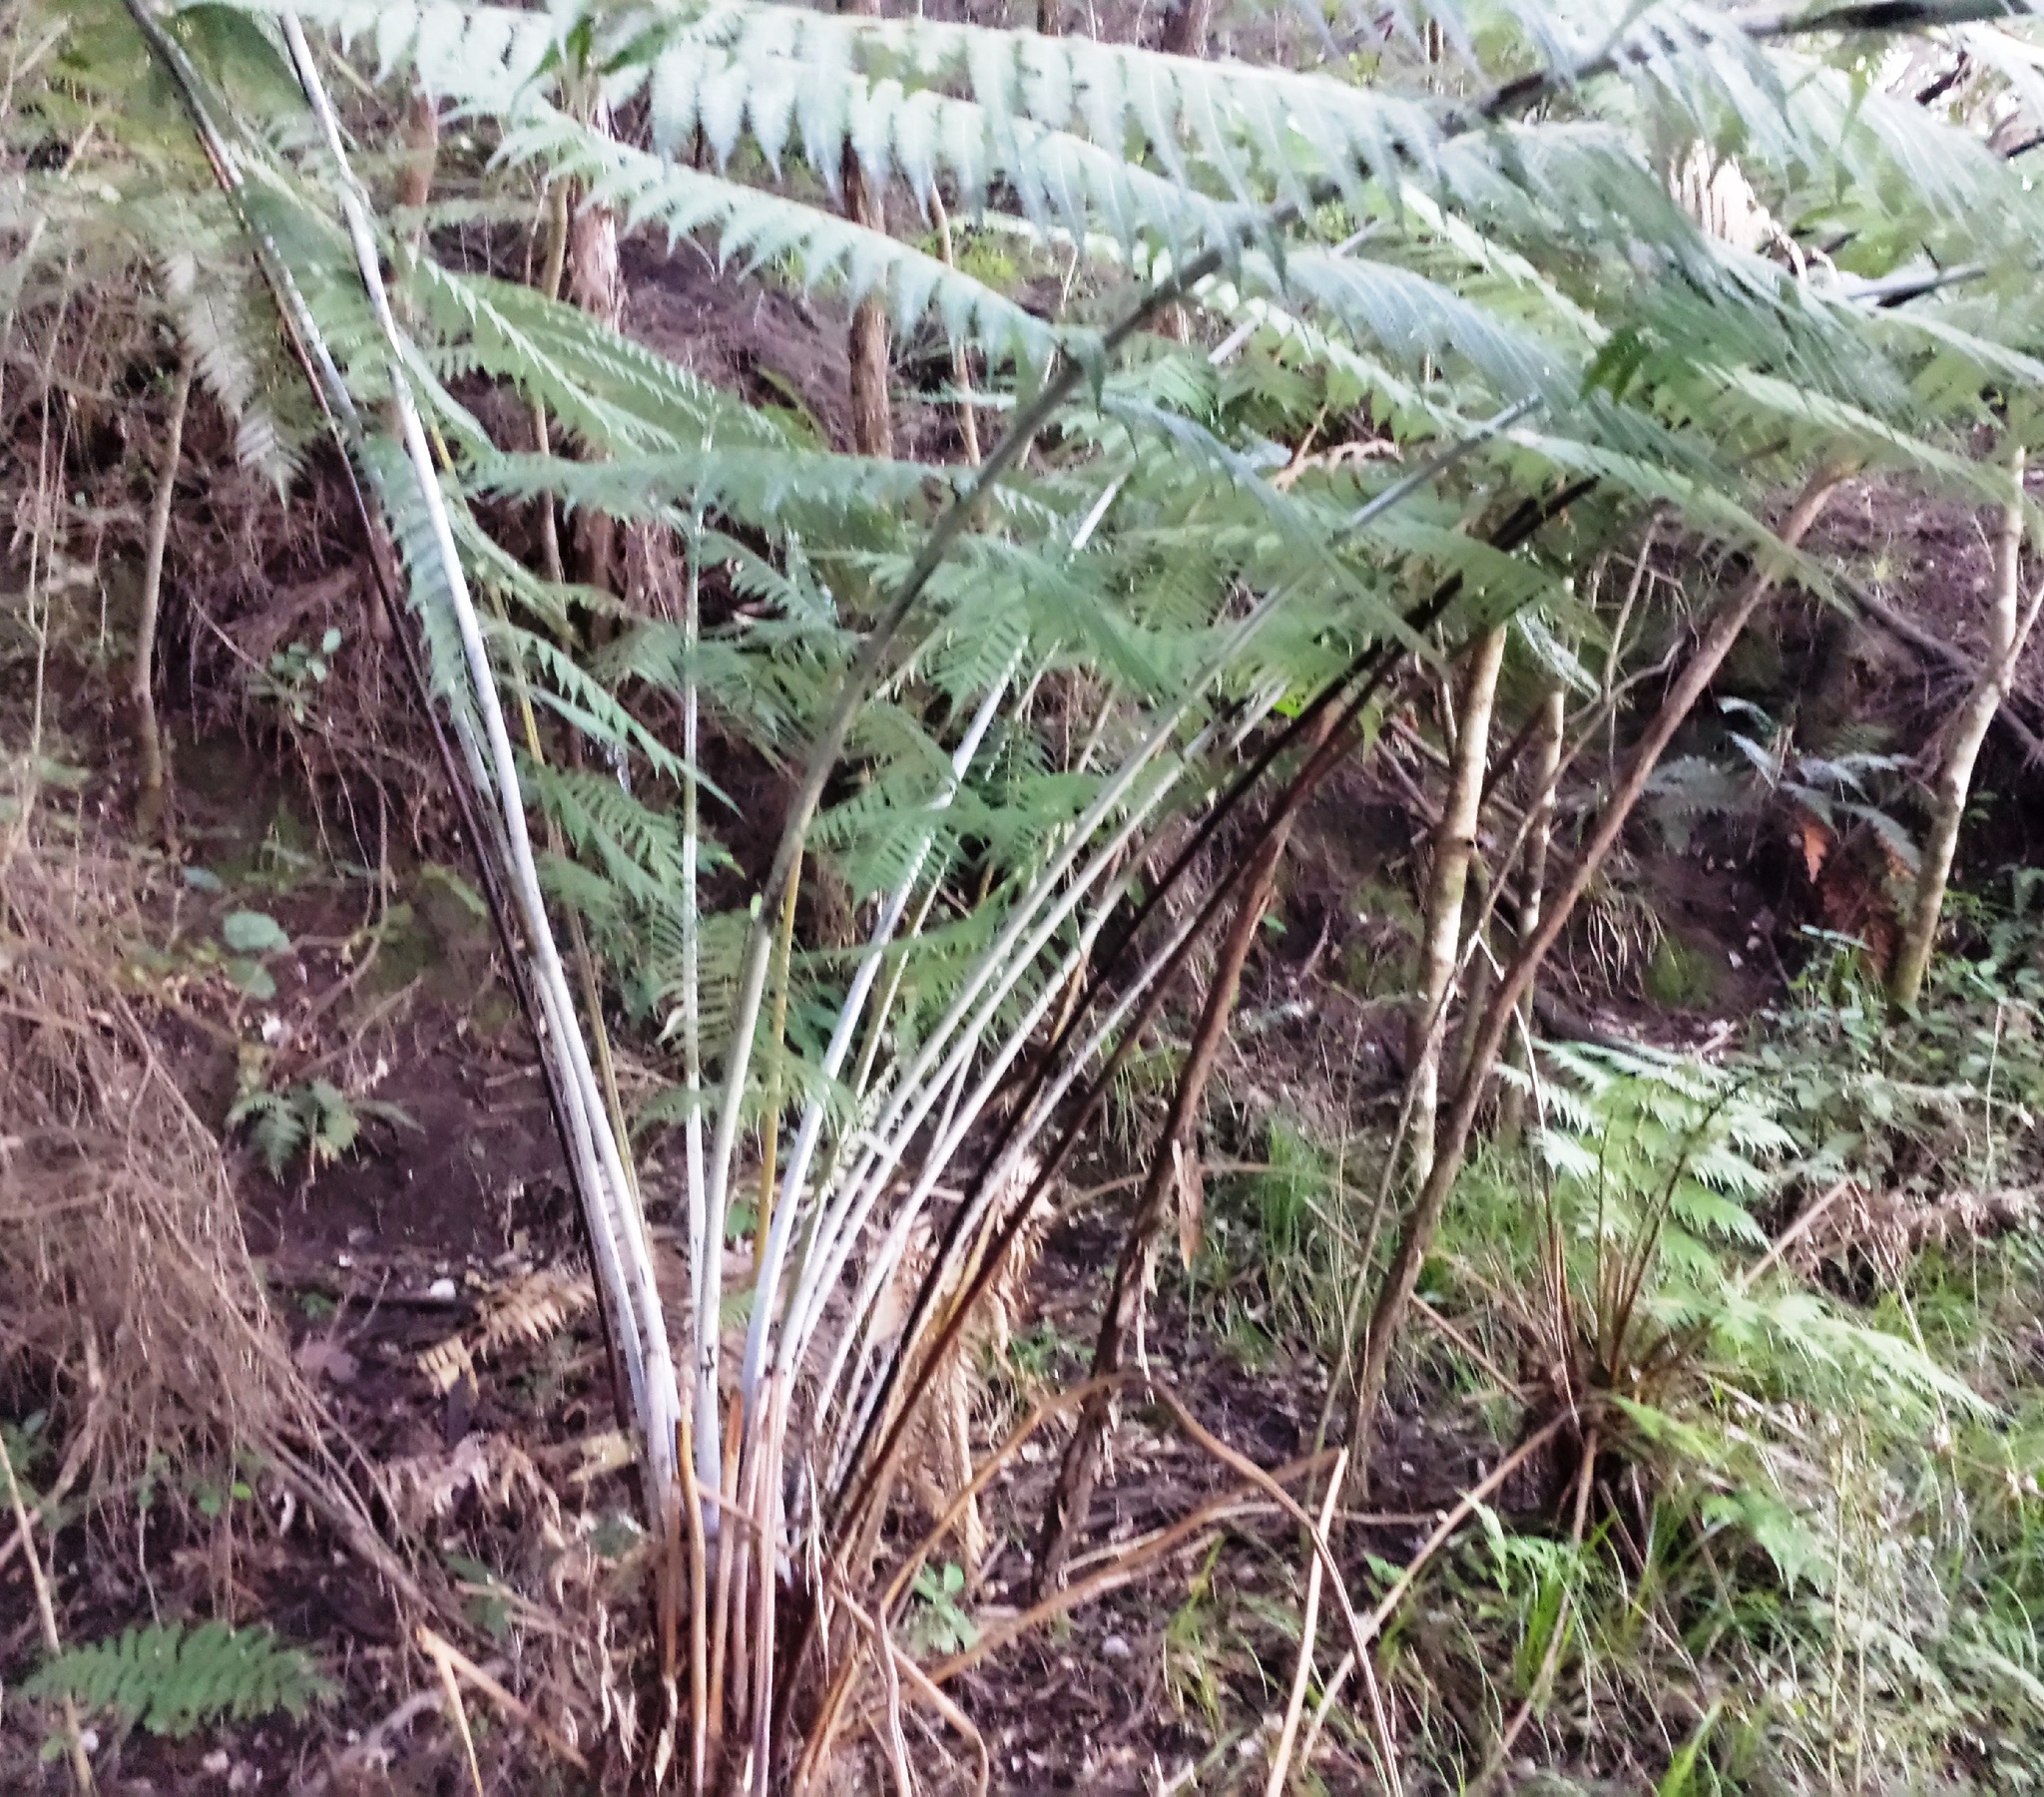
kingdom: Plantae
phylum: Tracheophyta
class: Polypodiopsida
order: Cyatheales
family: Cyatheaceae
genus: Alsophila
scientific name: Alsophila dealbata
